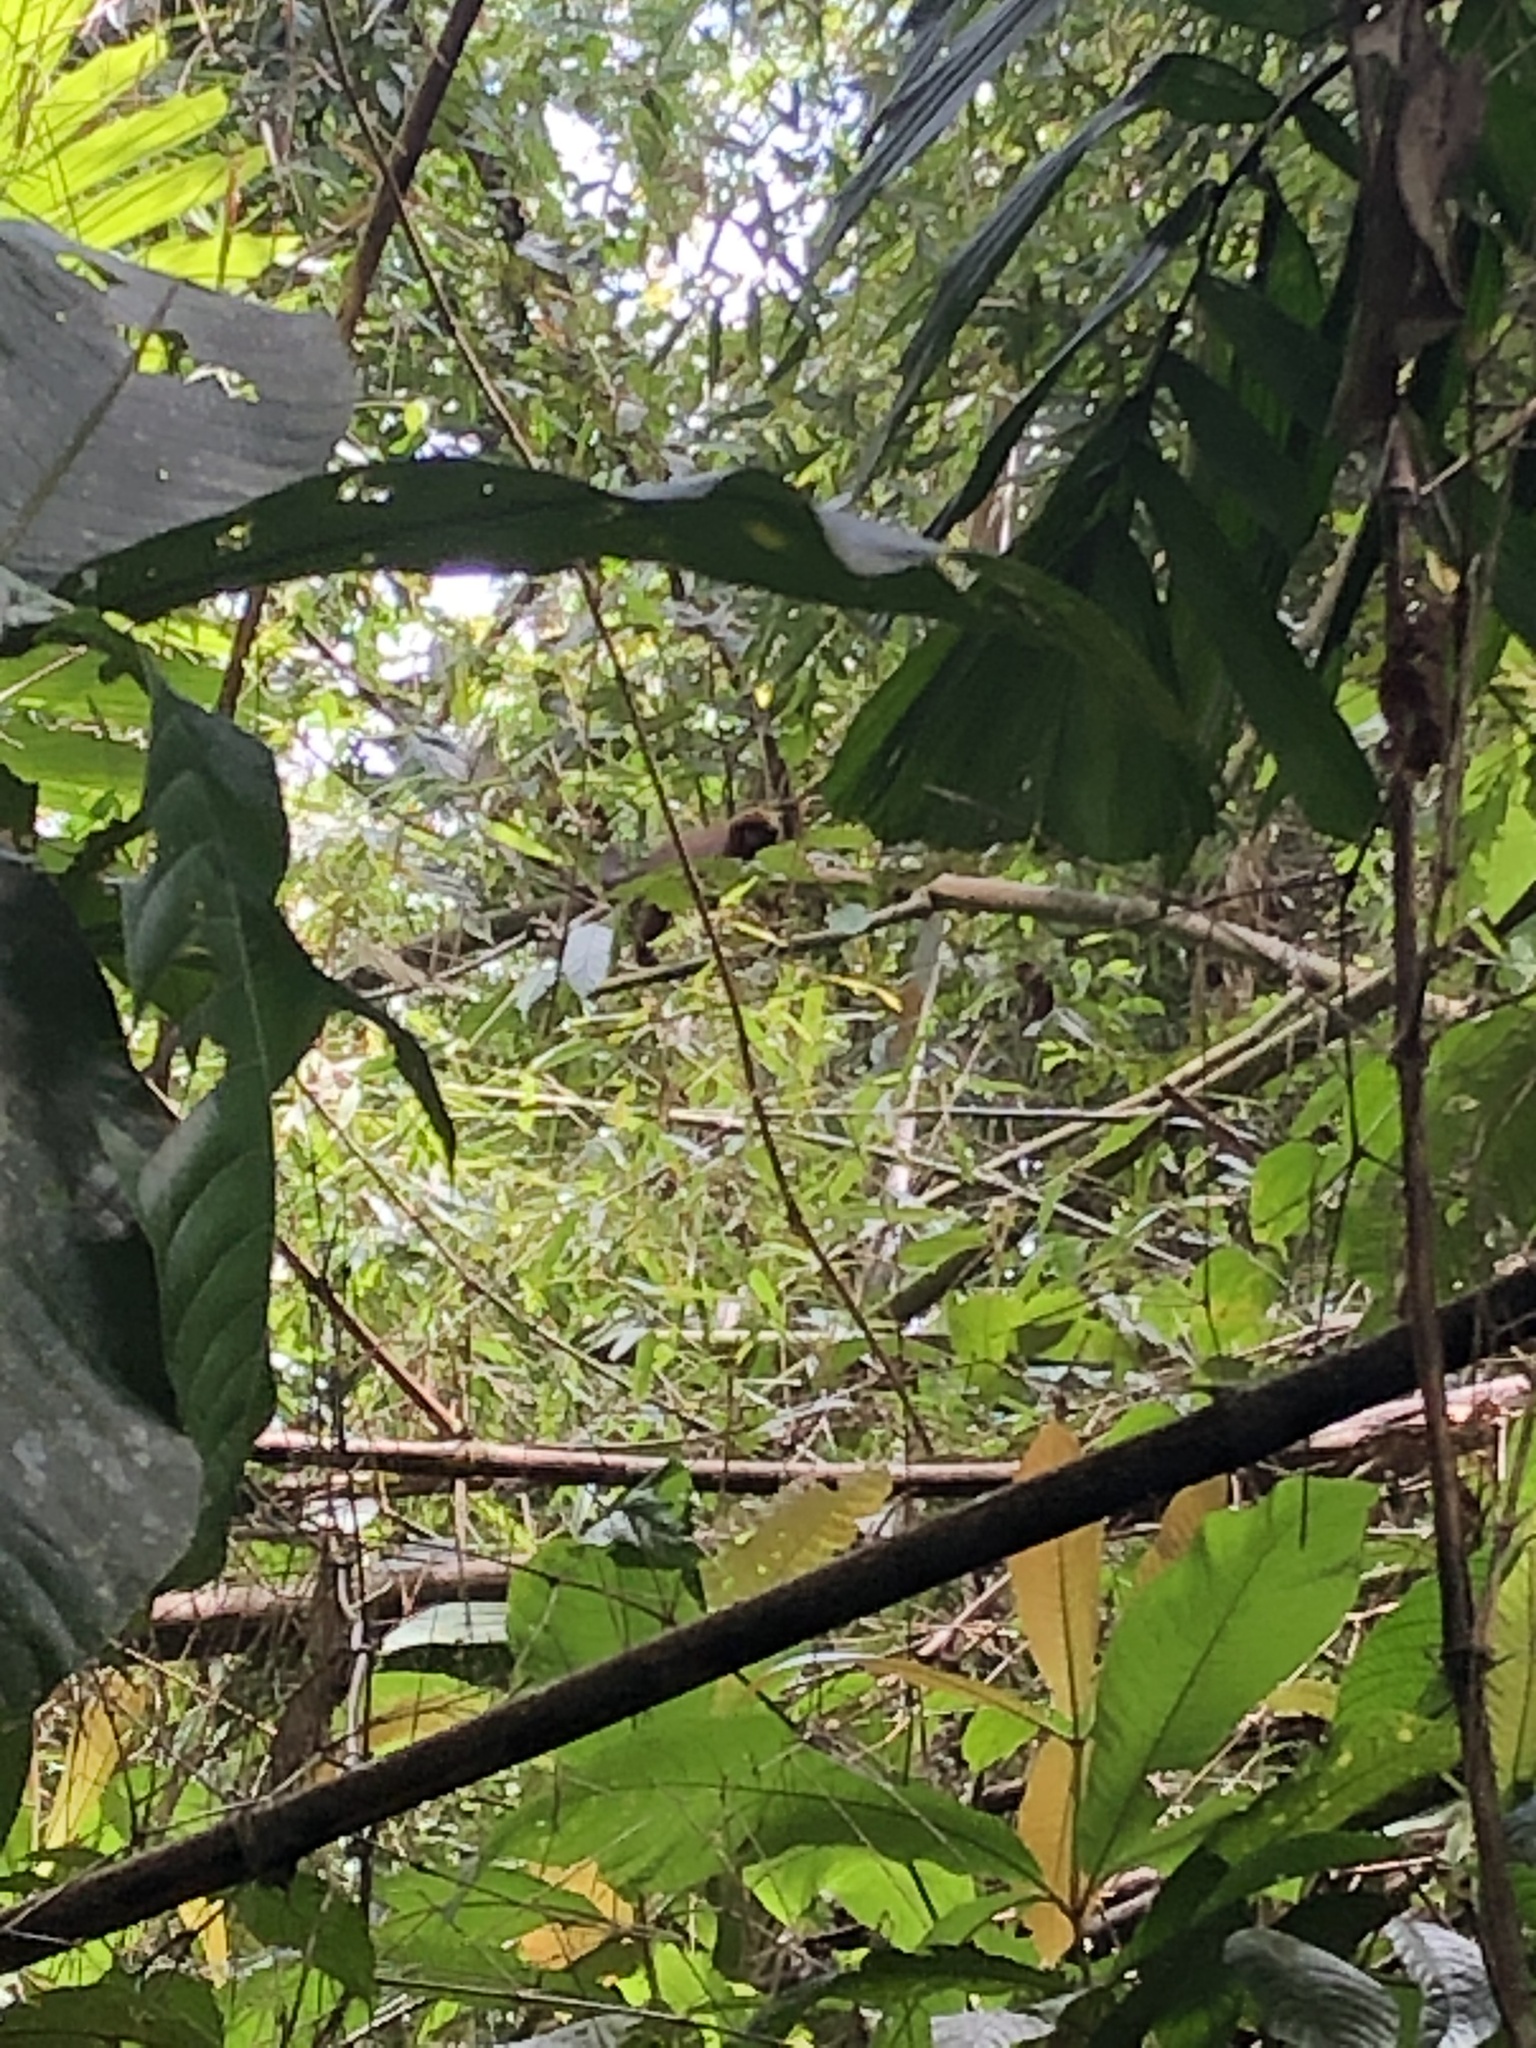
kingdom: Animalia
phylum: Chordata
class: Mammalia
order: Primates
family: Pitheciidae
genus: Plecturocebus
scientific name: Plecturocebus toppini
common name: Toppin's titi
